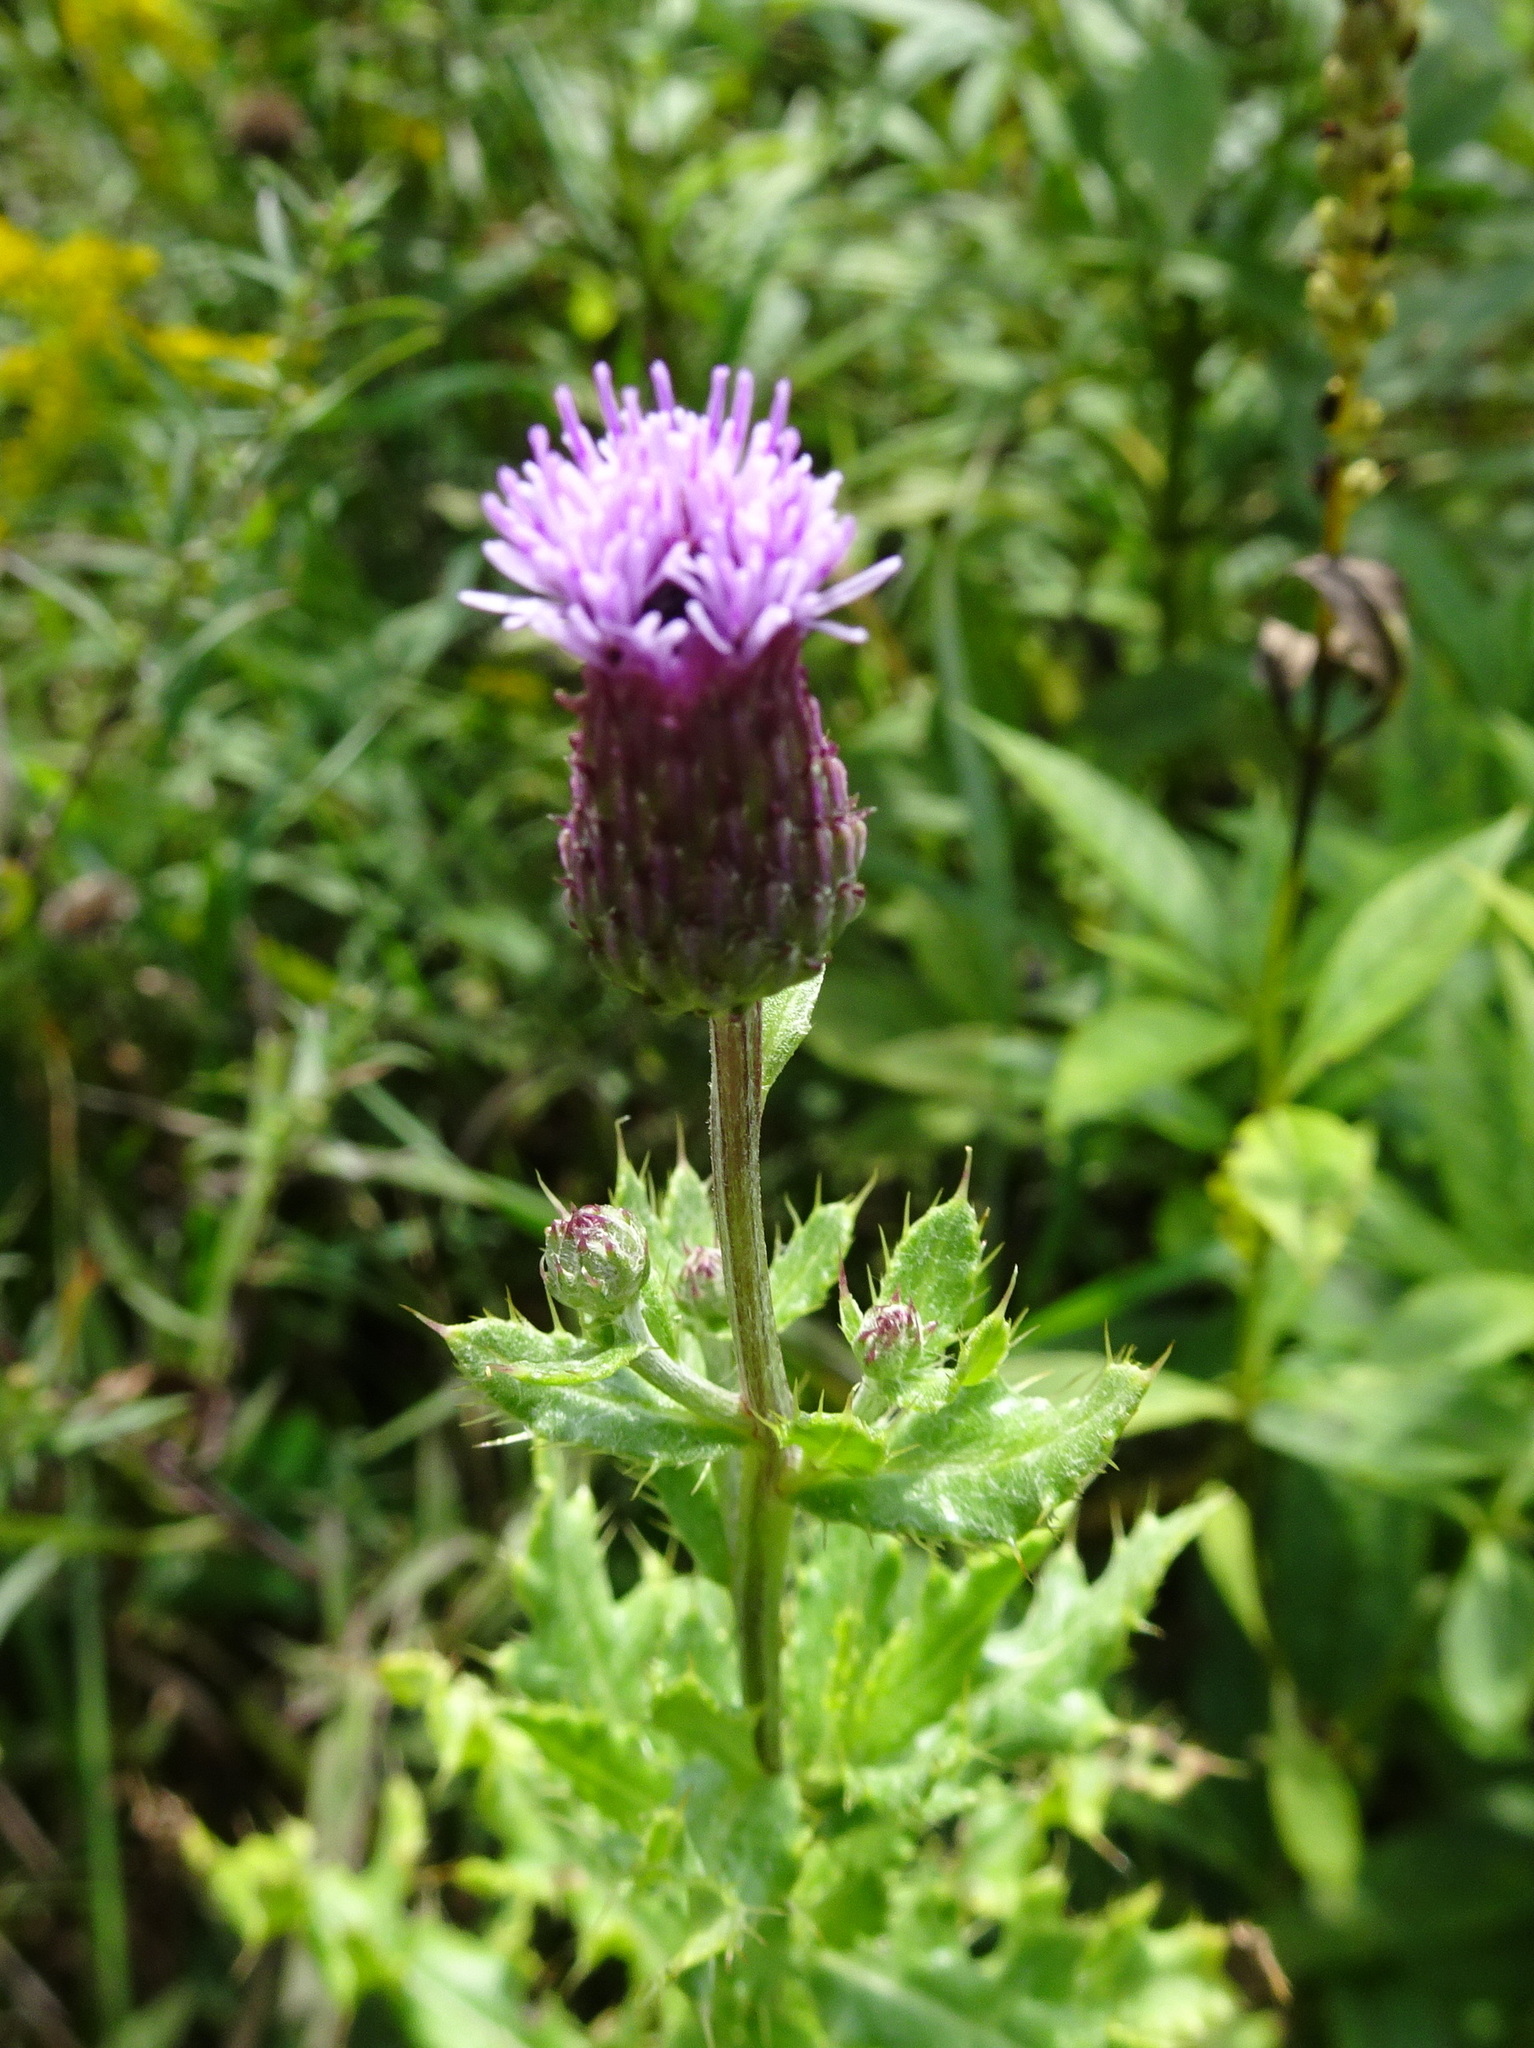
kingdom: Plantae
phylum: Tracheophyta
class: Magnoliopsida
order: Asterales
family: Asteraceae
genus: Cirsium
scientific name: Cirsium arvense
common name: Creeping thistle
